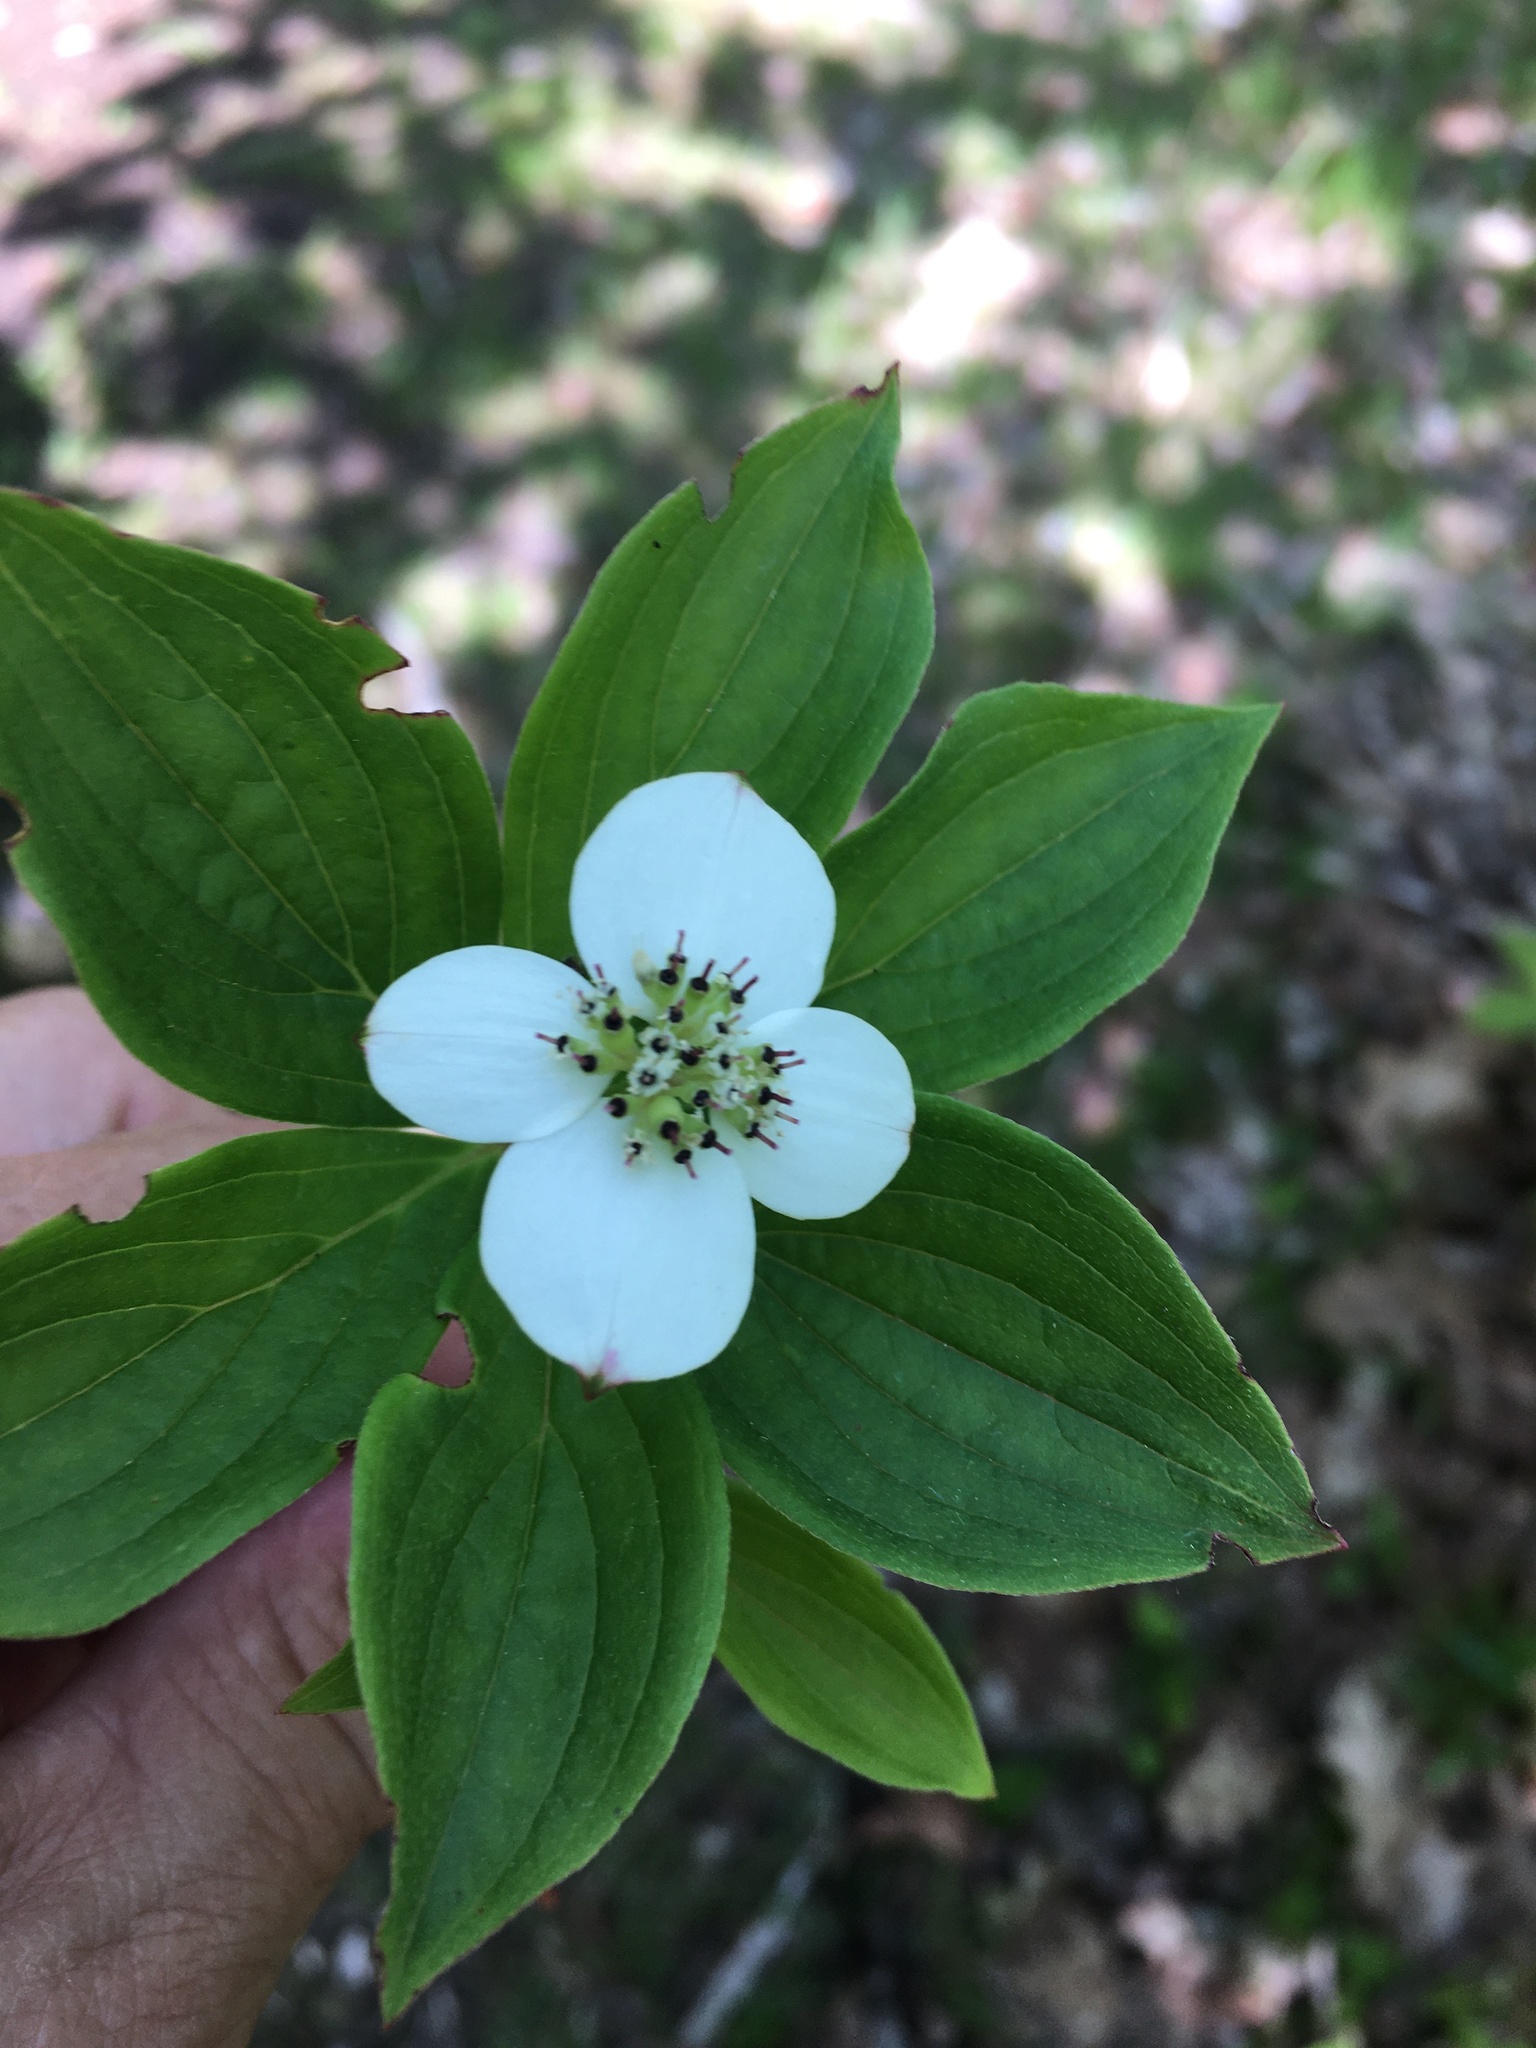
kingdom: Plantae
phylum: Tracheophyta
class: Magnoliopsida
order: Cornales
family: Cornaceae
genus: Cornus
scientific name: Cornus canadensis
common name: Creeping dogwood
